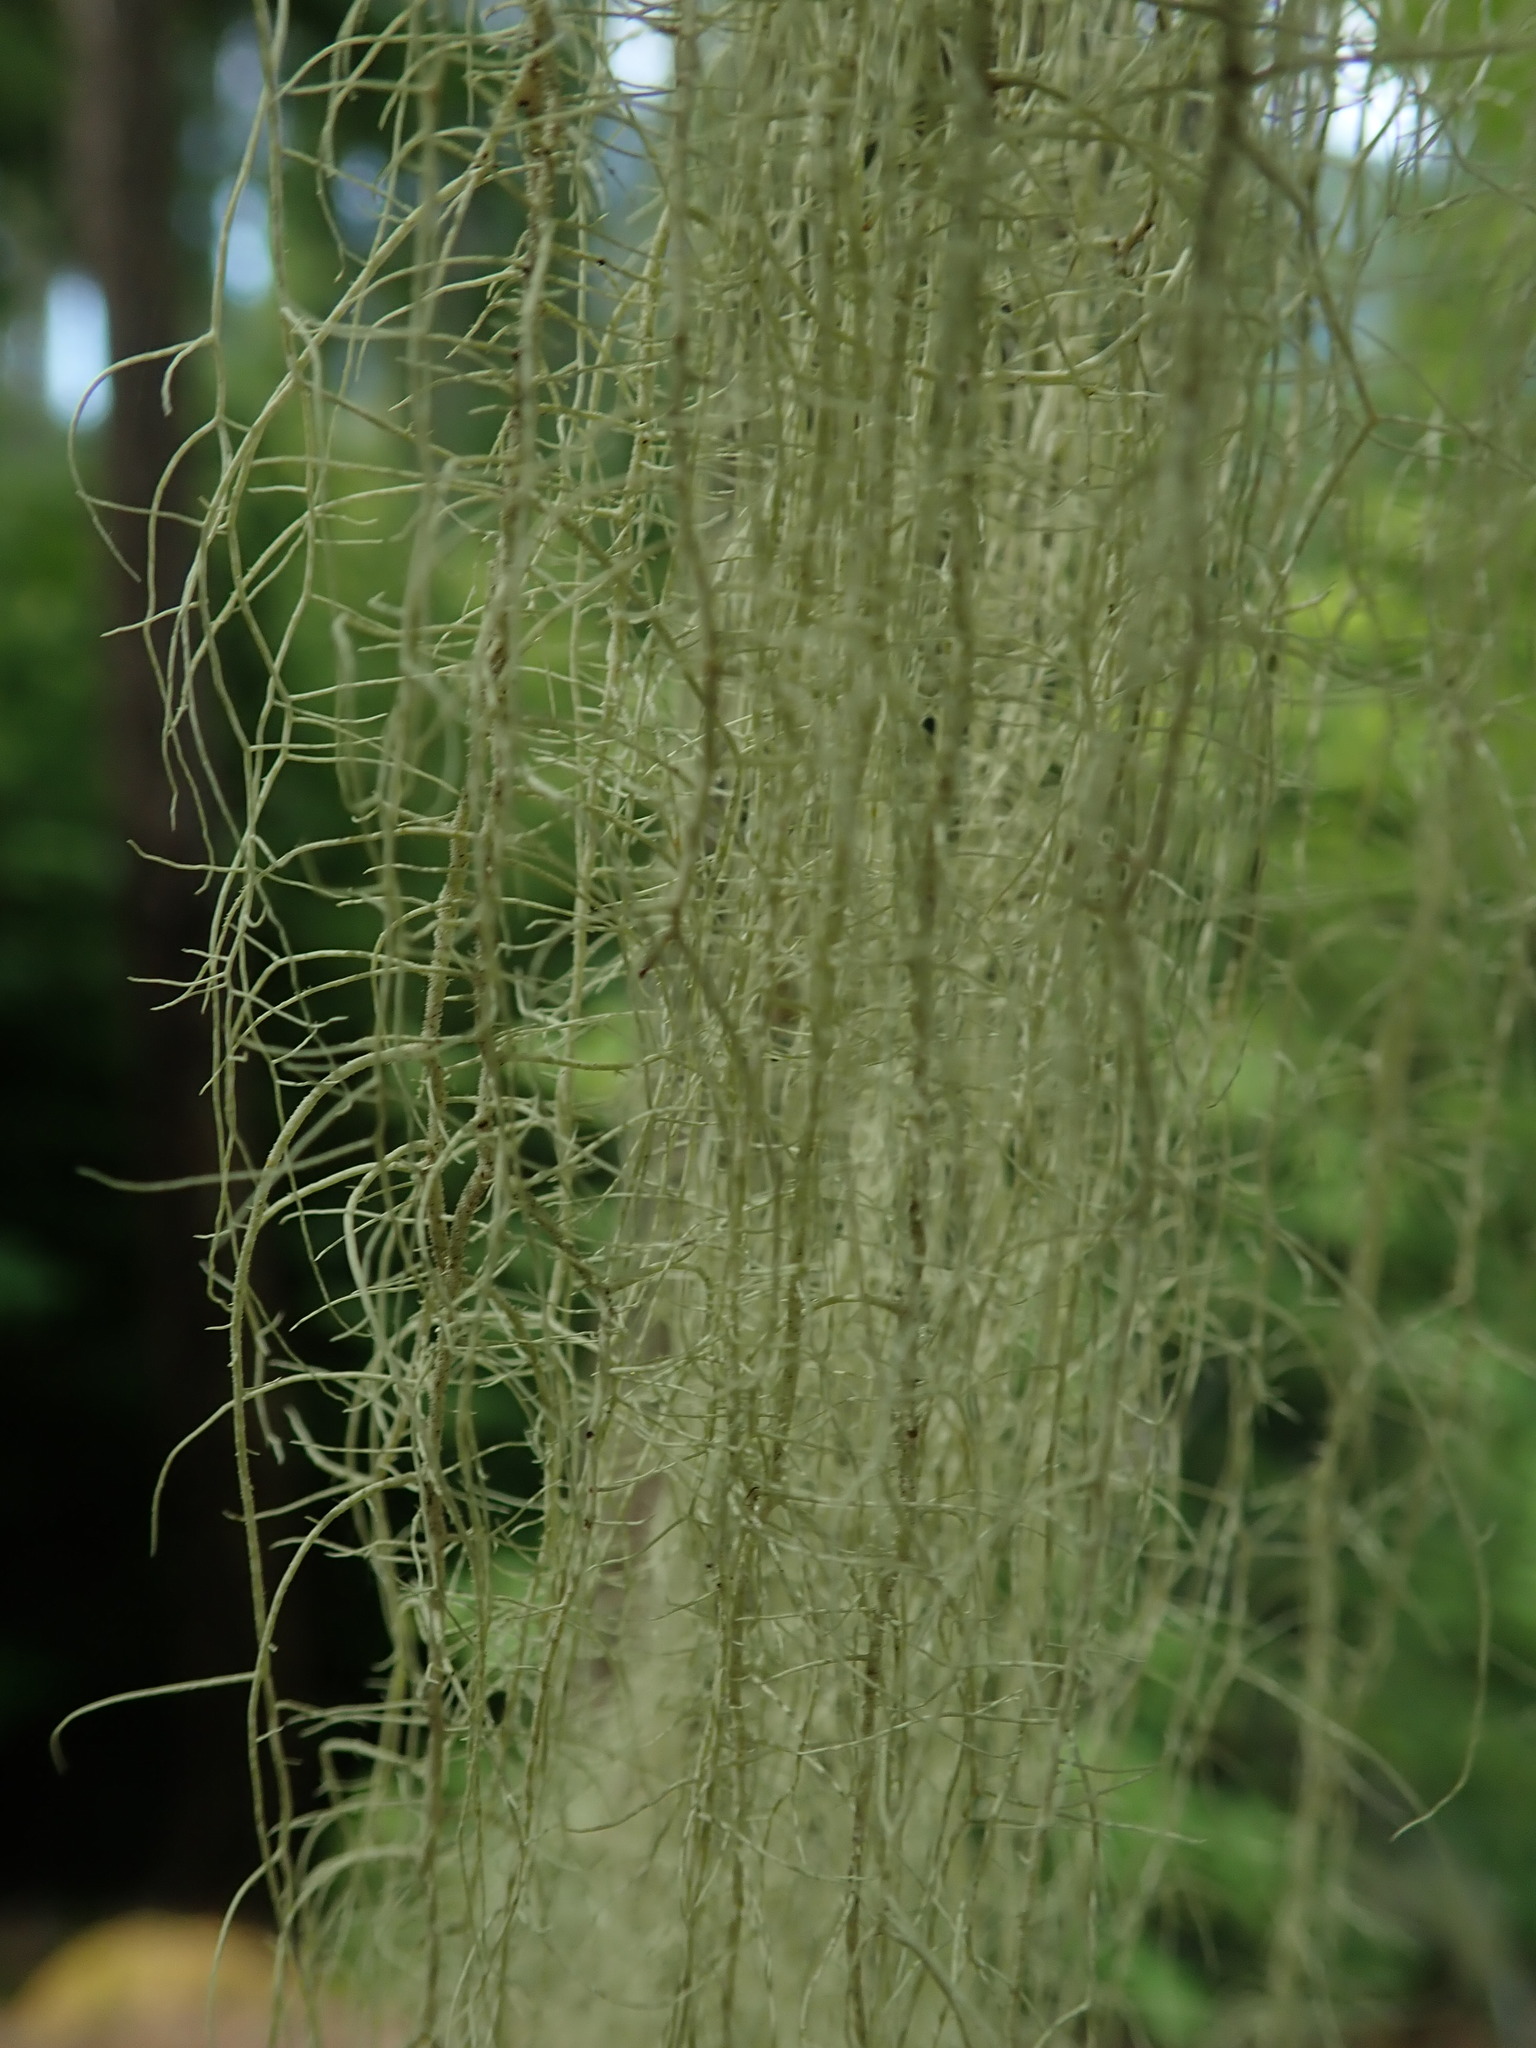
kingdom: Fungi
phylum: Ascomycota
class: Lecanoromycetes
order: Lecanorales
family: Parmeliaceae
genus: Usnea
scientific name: Usnea dasopoga
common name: Fishbone beard lichen
